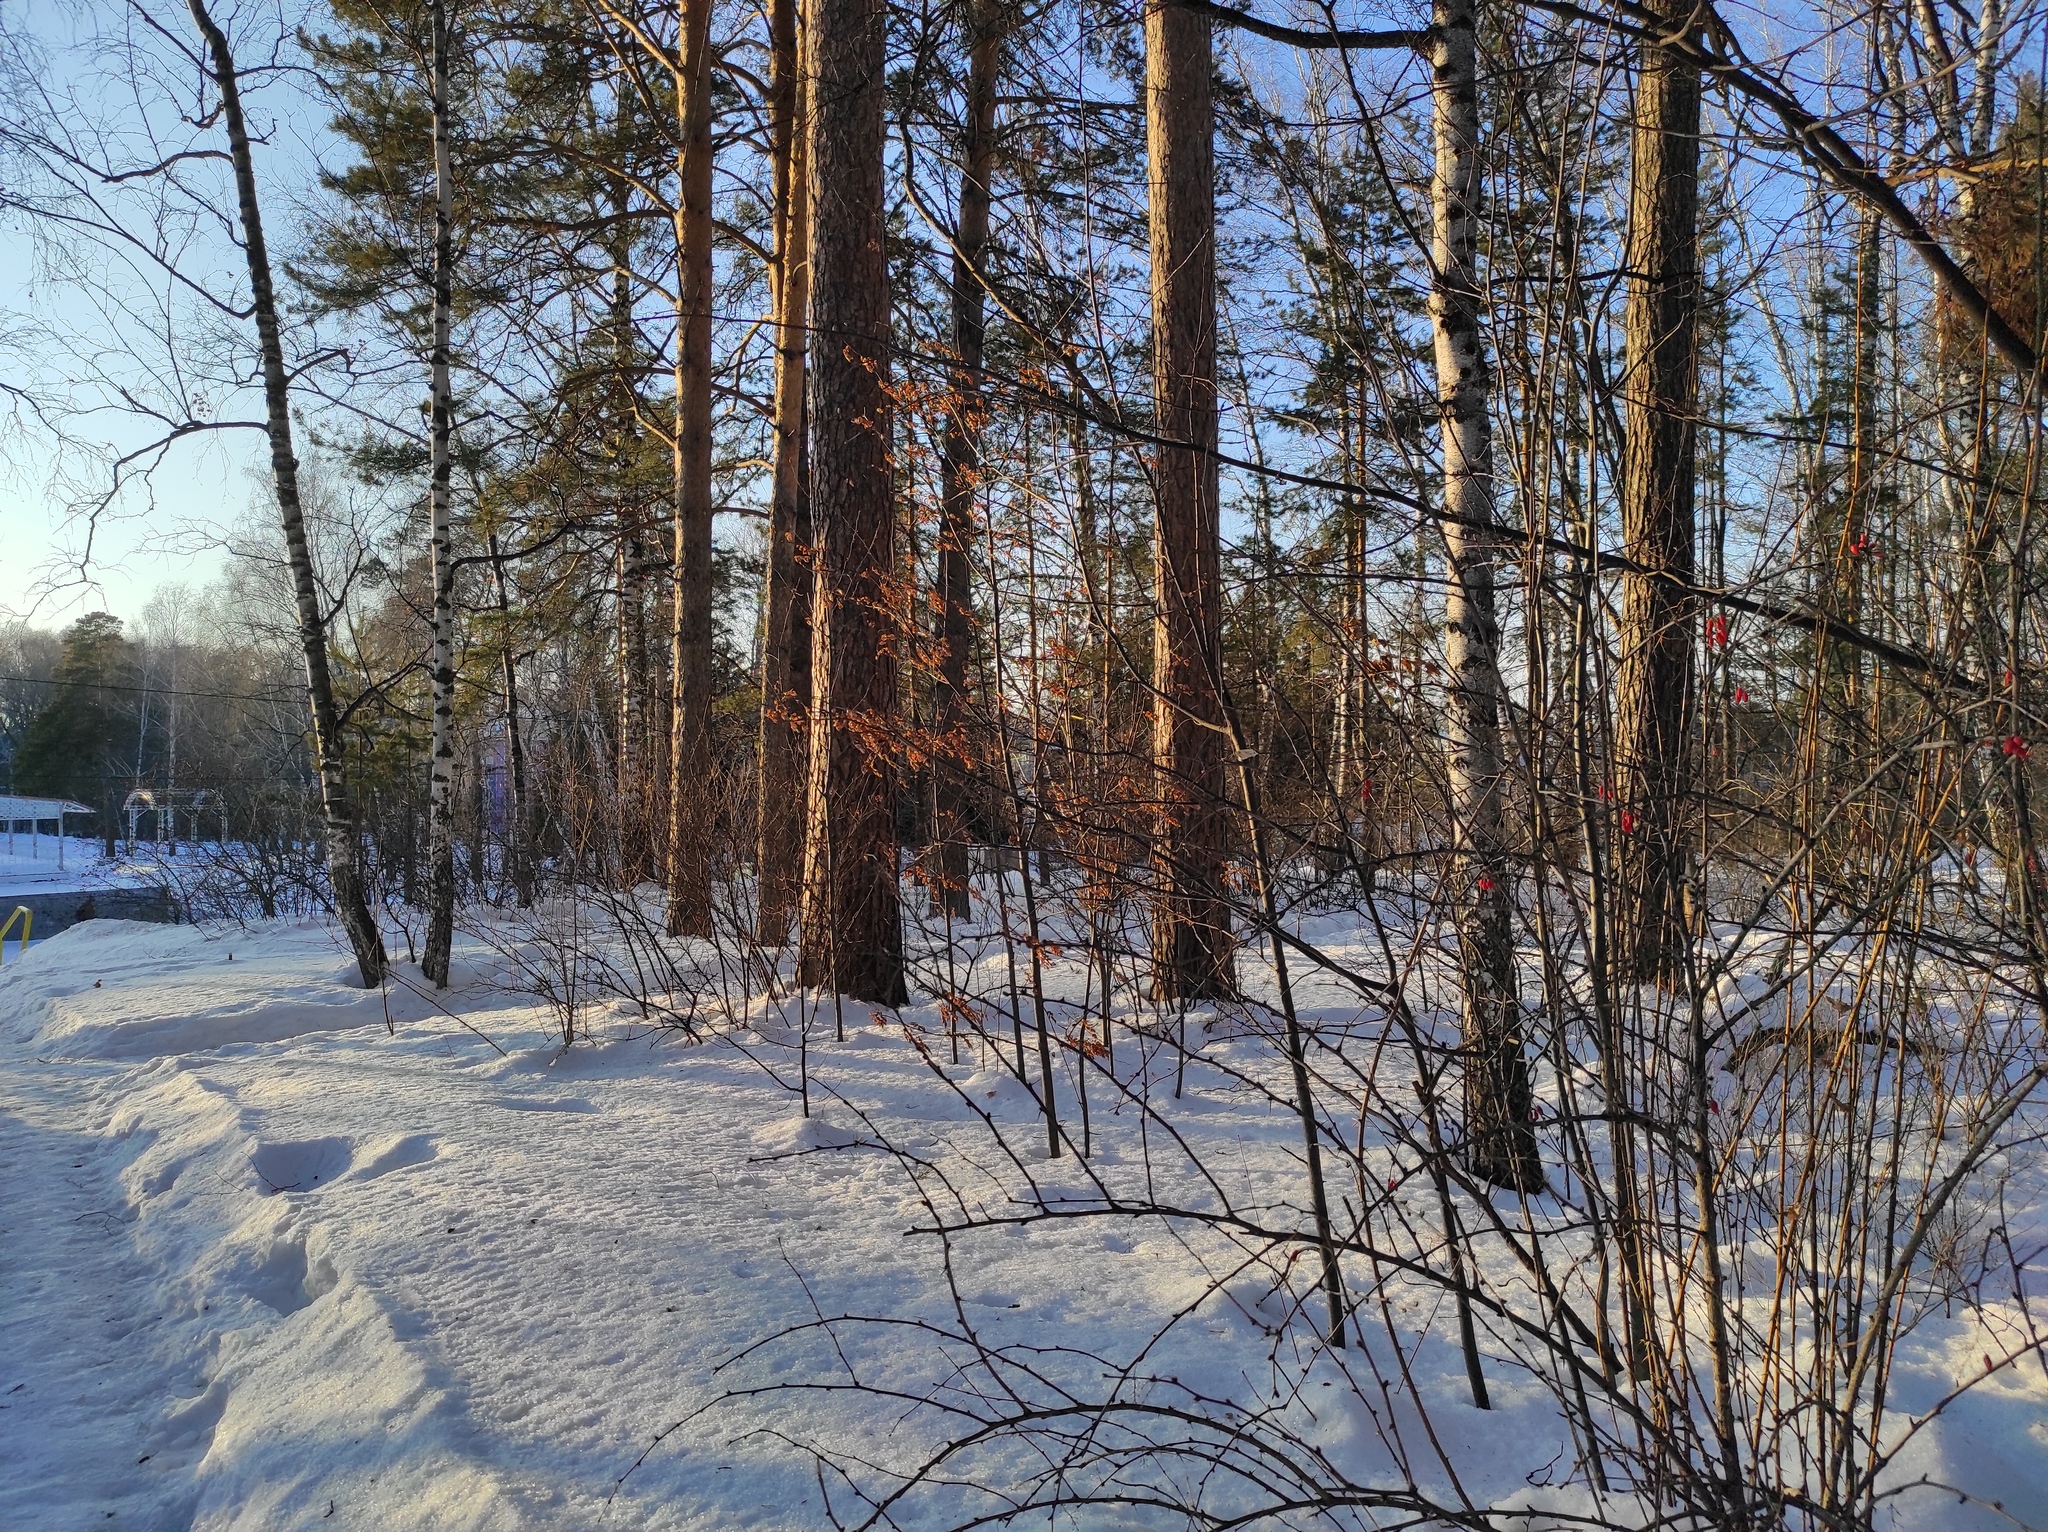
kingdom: Plantae
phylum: Tracheophyta
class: Pinopsida
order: Pinales
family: Pinaceae
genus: Pinus
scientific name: Pinus sylvestris
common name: Scots pine
